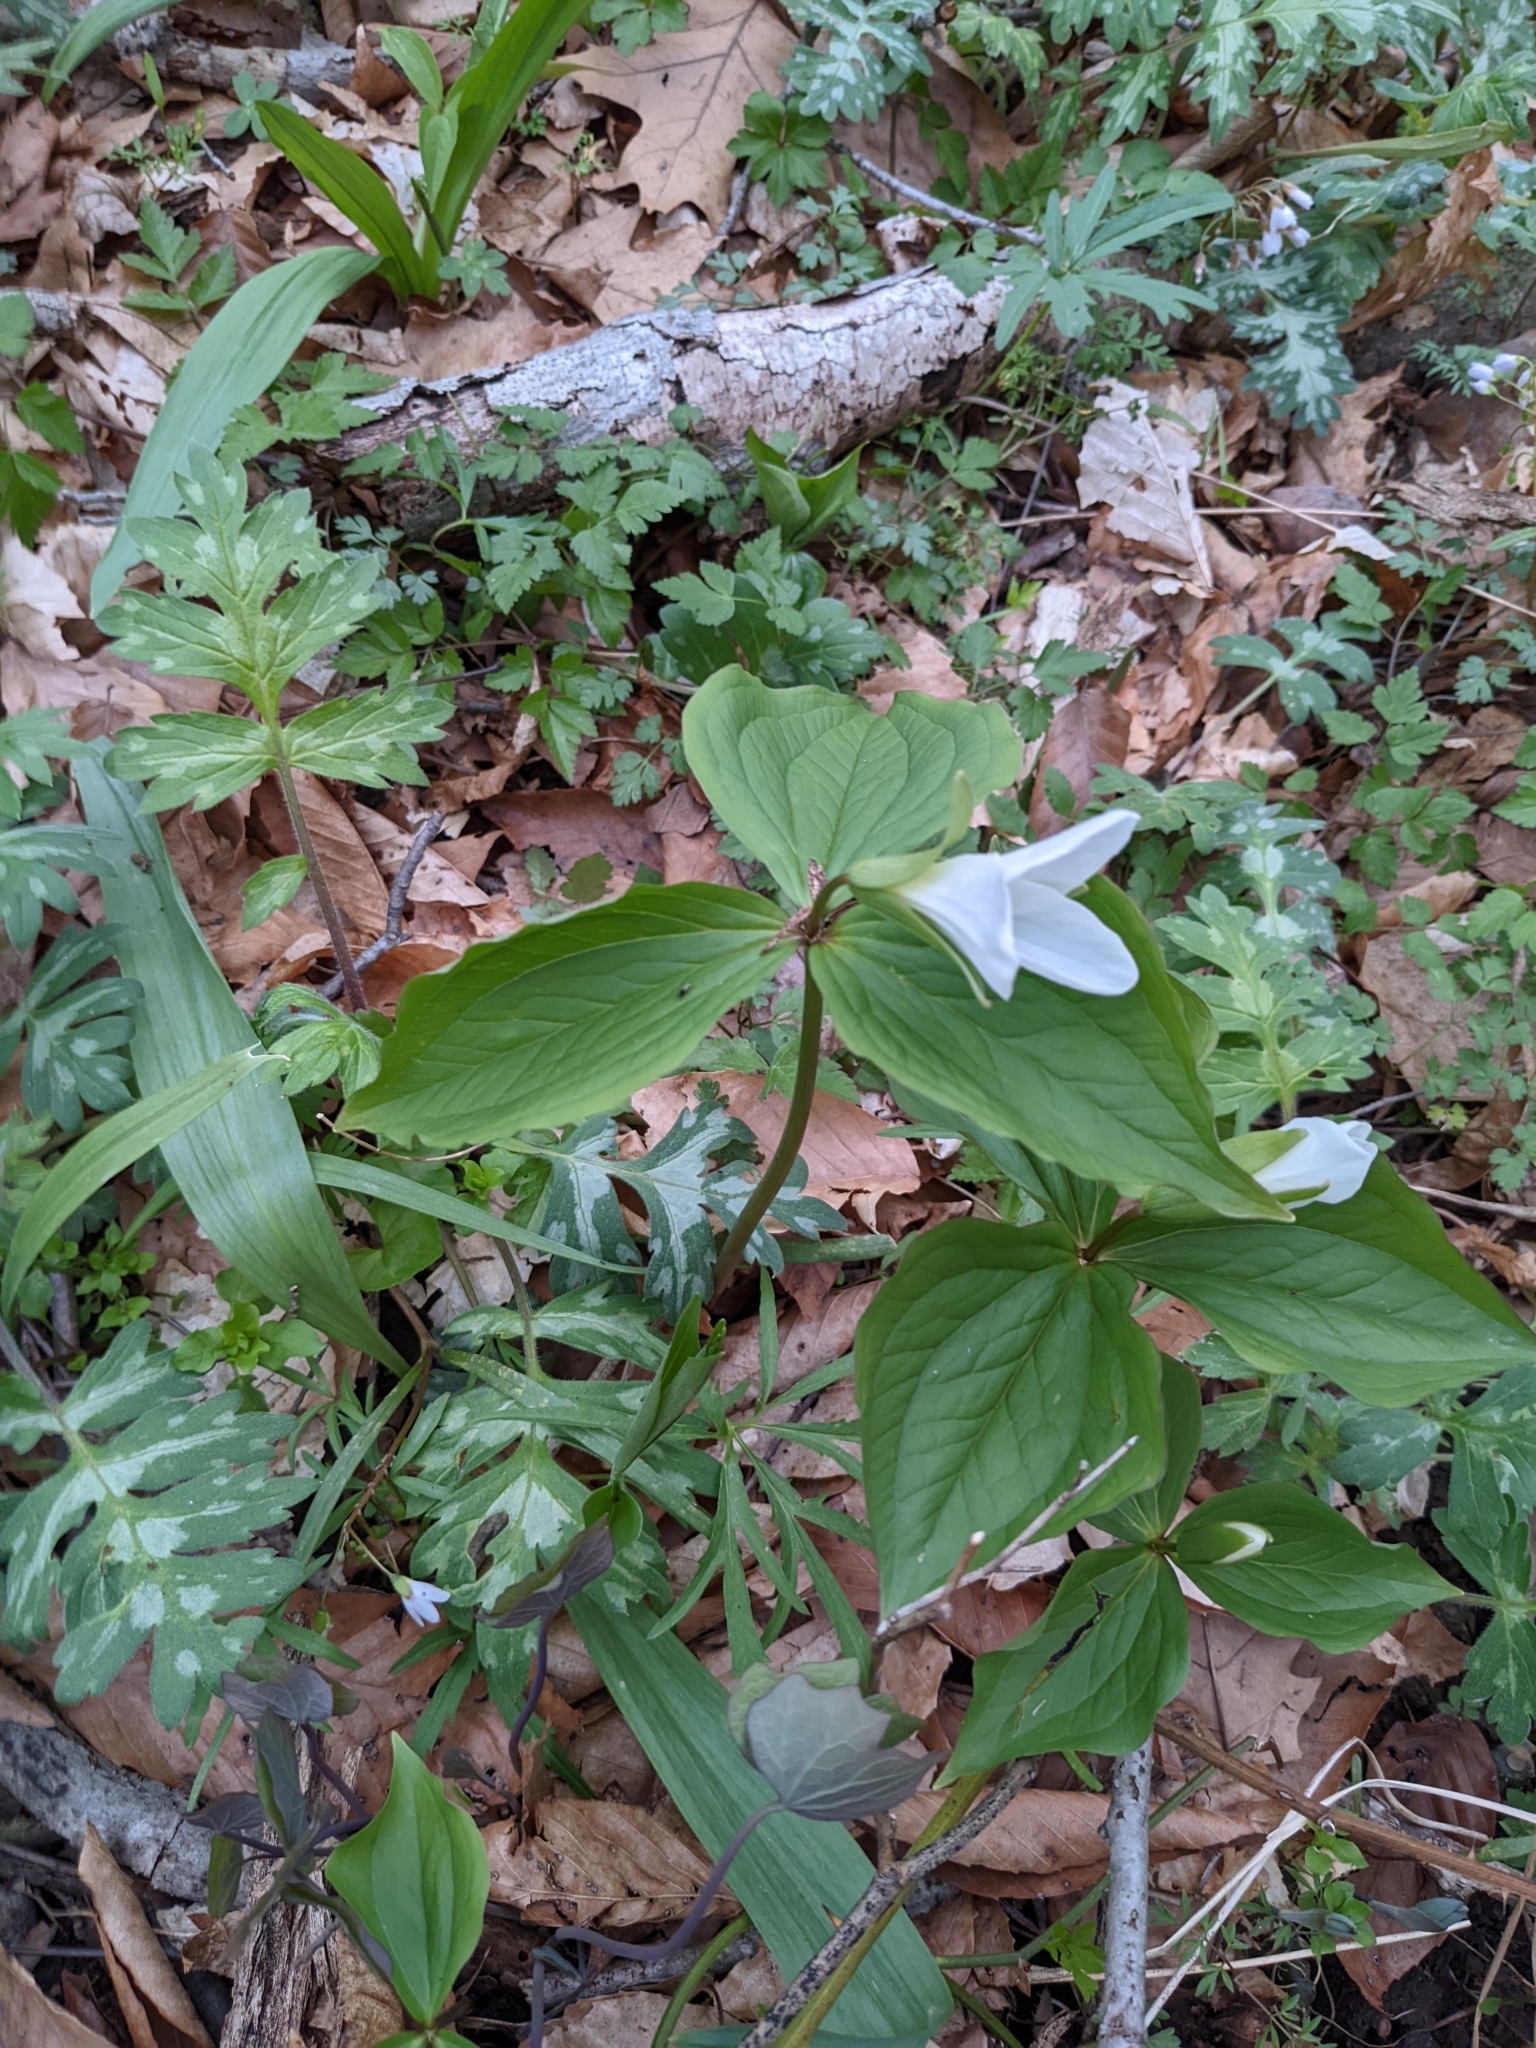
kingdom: Plantae
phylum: Tracheophyta
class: Liliopsida
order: Liliales
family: Melanthiaceae
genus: Trillium
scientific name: Trillium grandiflorum
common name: Great white trillium
